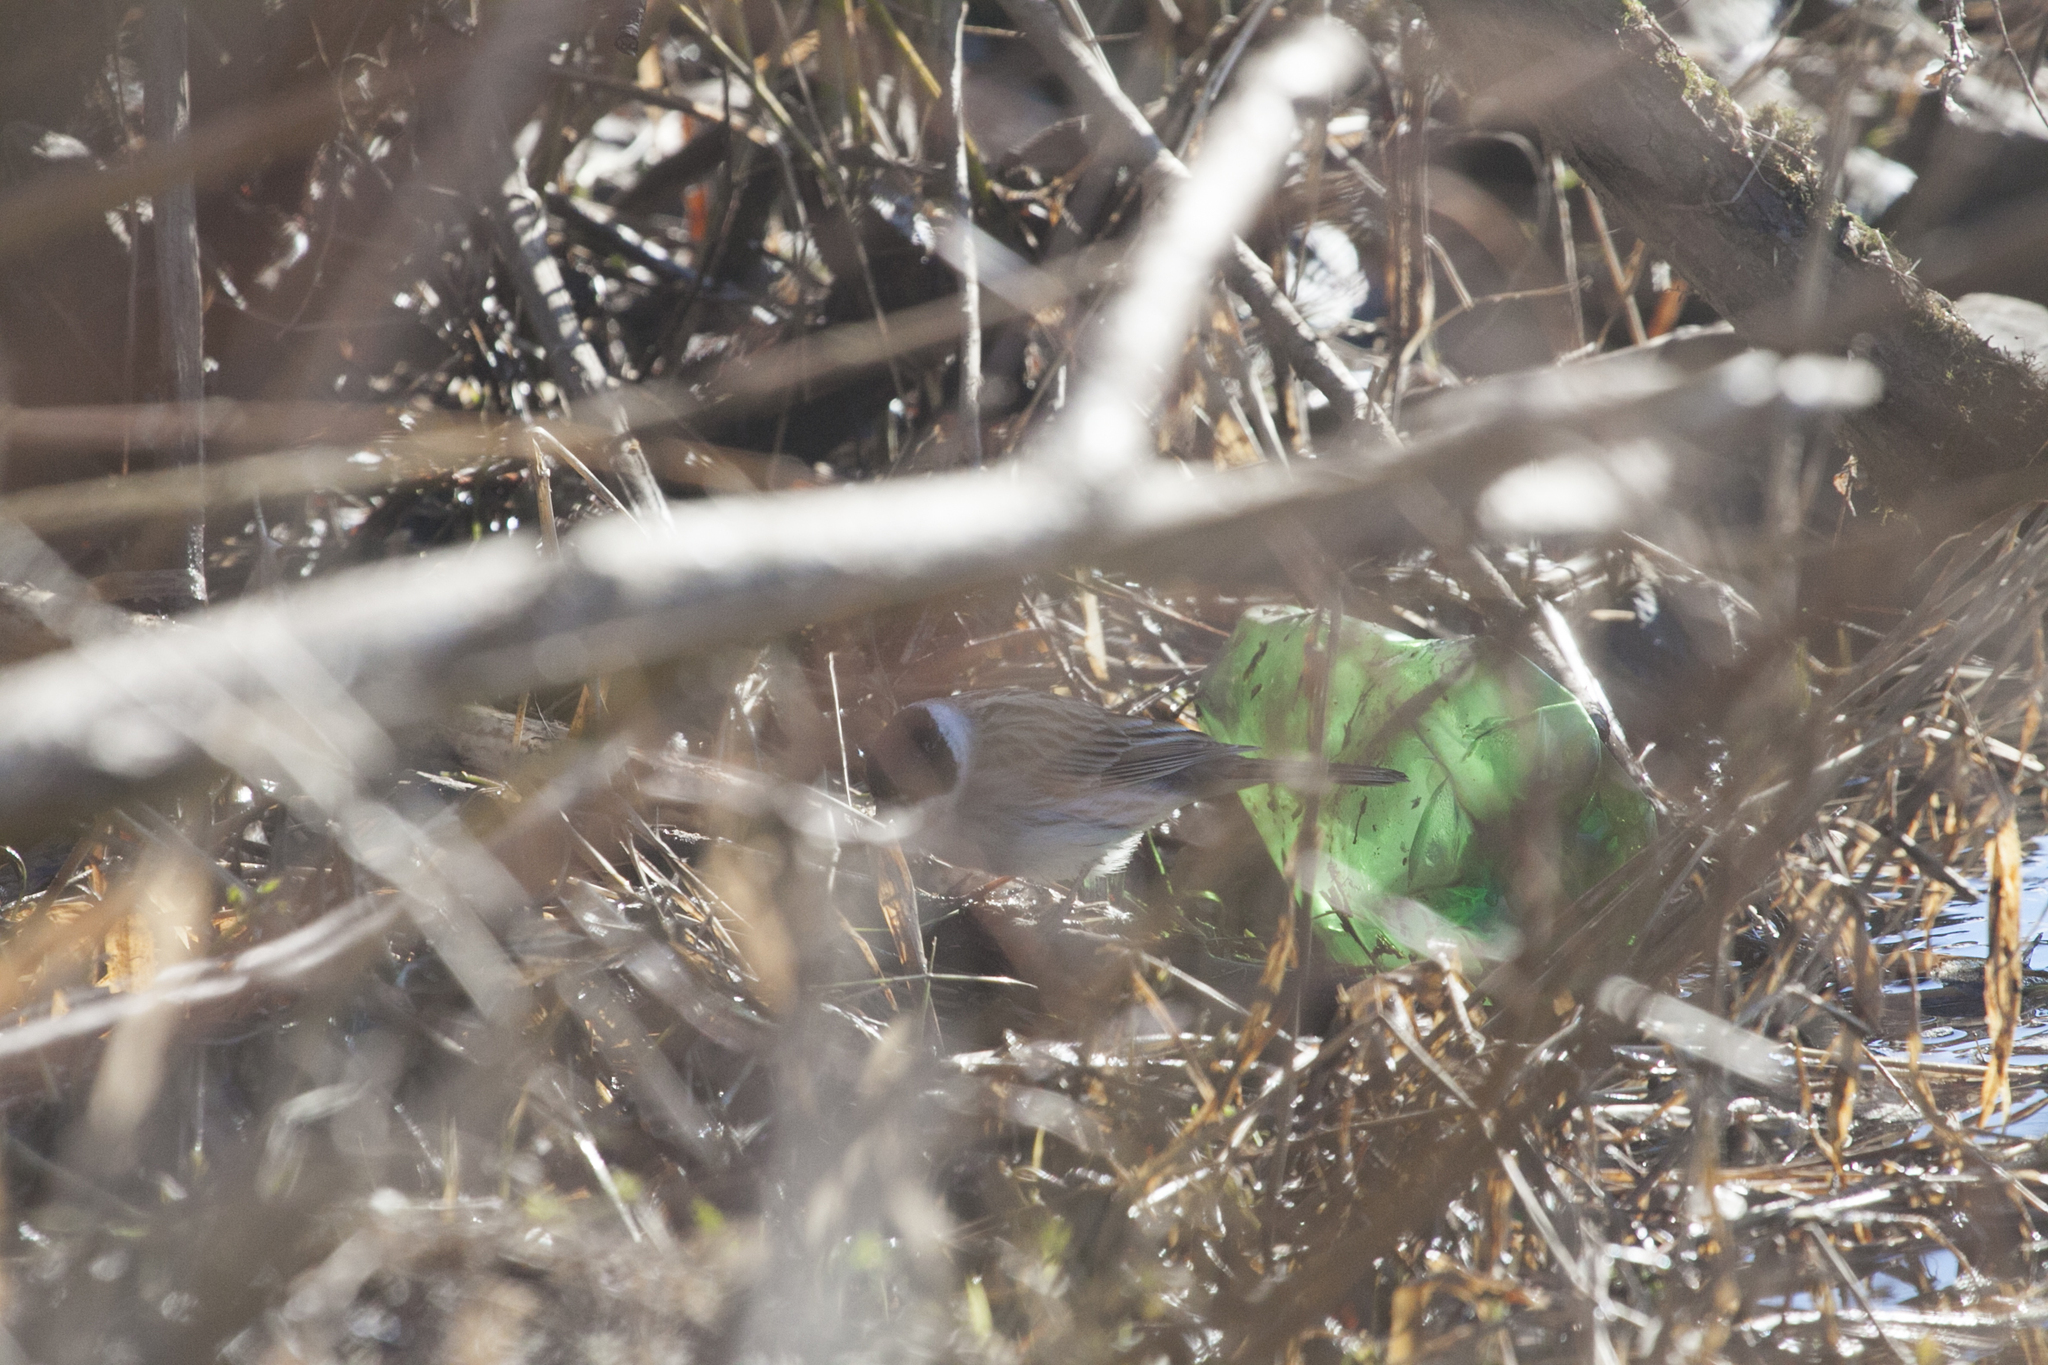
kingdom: Animalia
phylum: Chordata
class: Aves
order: Passeriformes
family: Emberizidae
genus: Emberiza
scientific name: Emberiza schoeniclus
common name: Reed bunting
